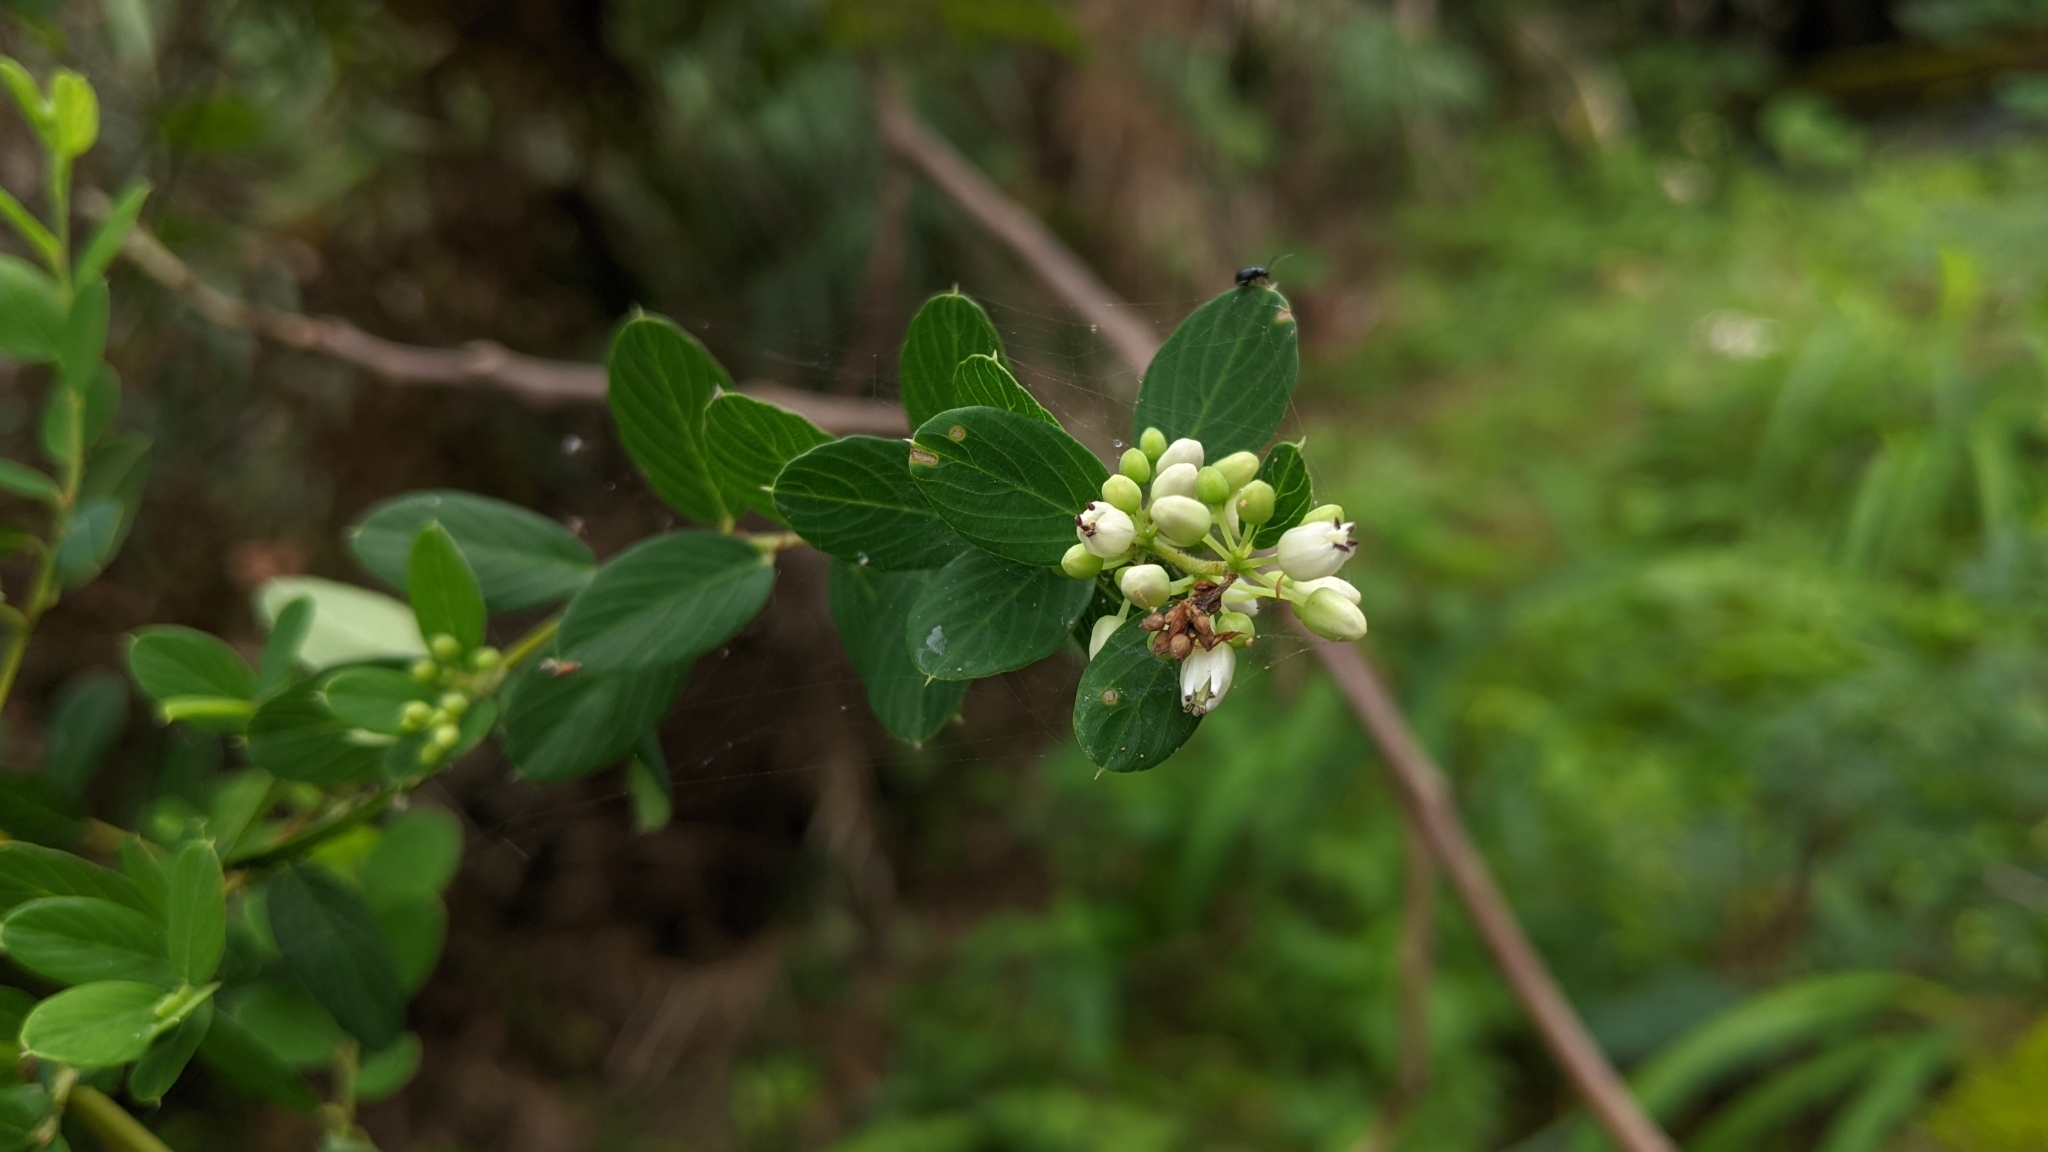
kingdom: Plantae
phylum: Tracheophyta
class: Magnoliopsida
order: Rosales
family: Rhamnaceae
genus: Berchemia
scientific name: Berchemia lineata
